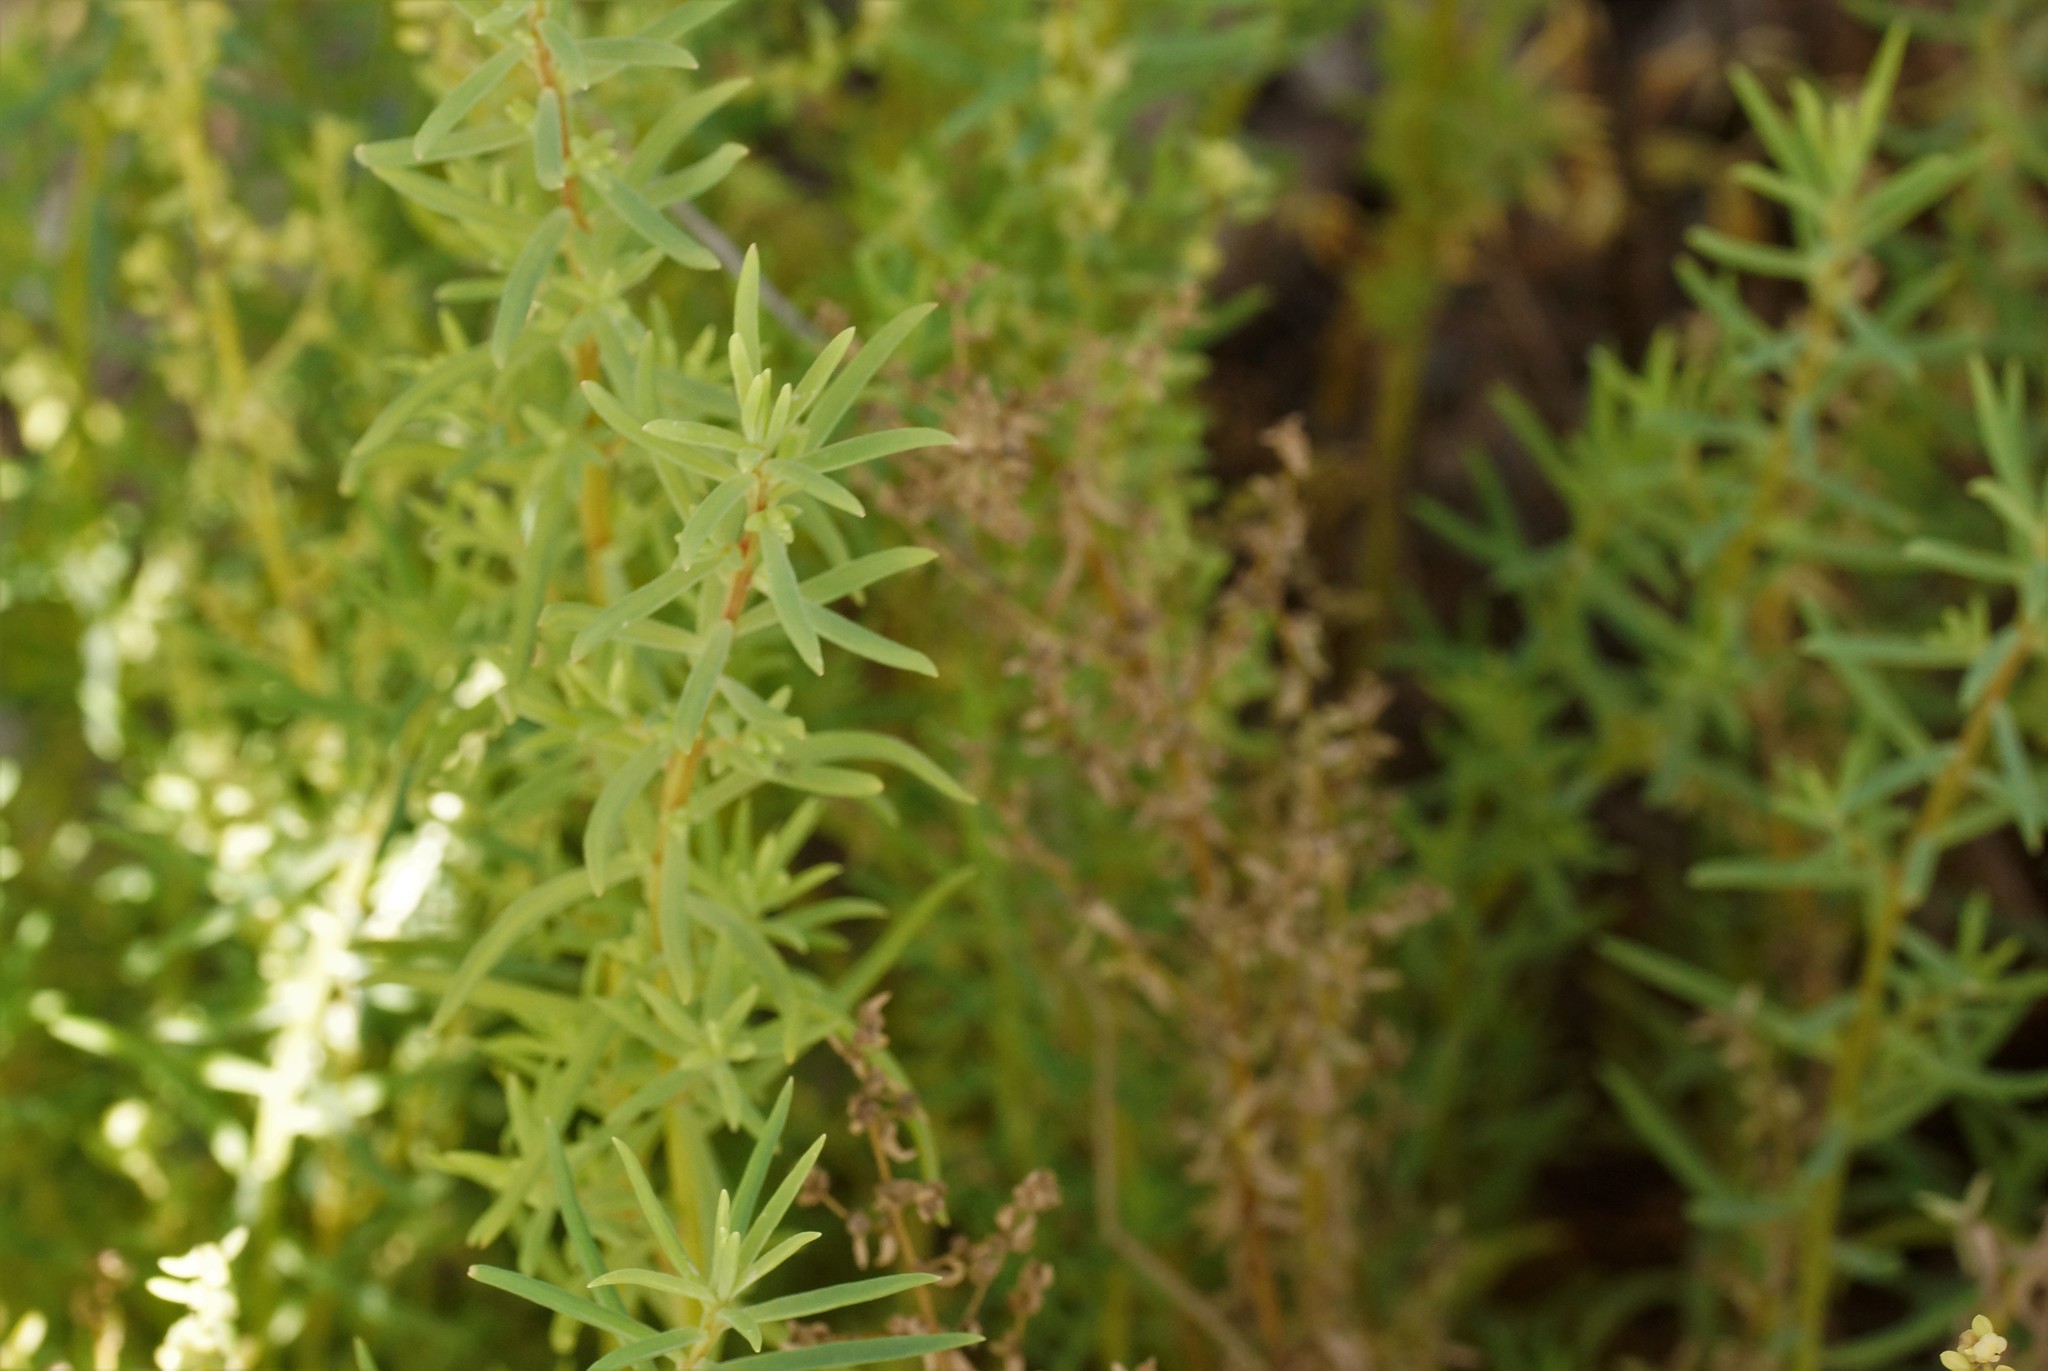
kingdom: Plantae
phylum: Tracheophyta
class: Magnoliopsida
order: Caryophyllales
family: Amaranthaceae
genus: Suaeda
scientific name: Suaeda australis
